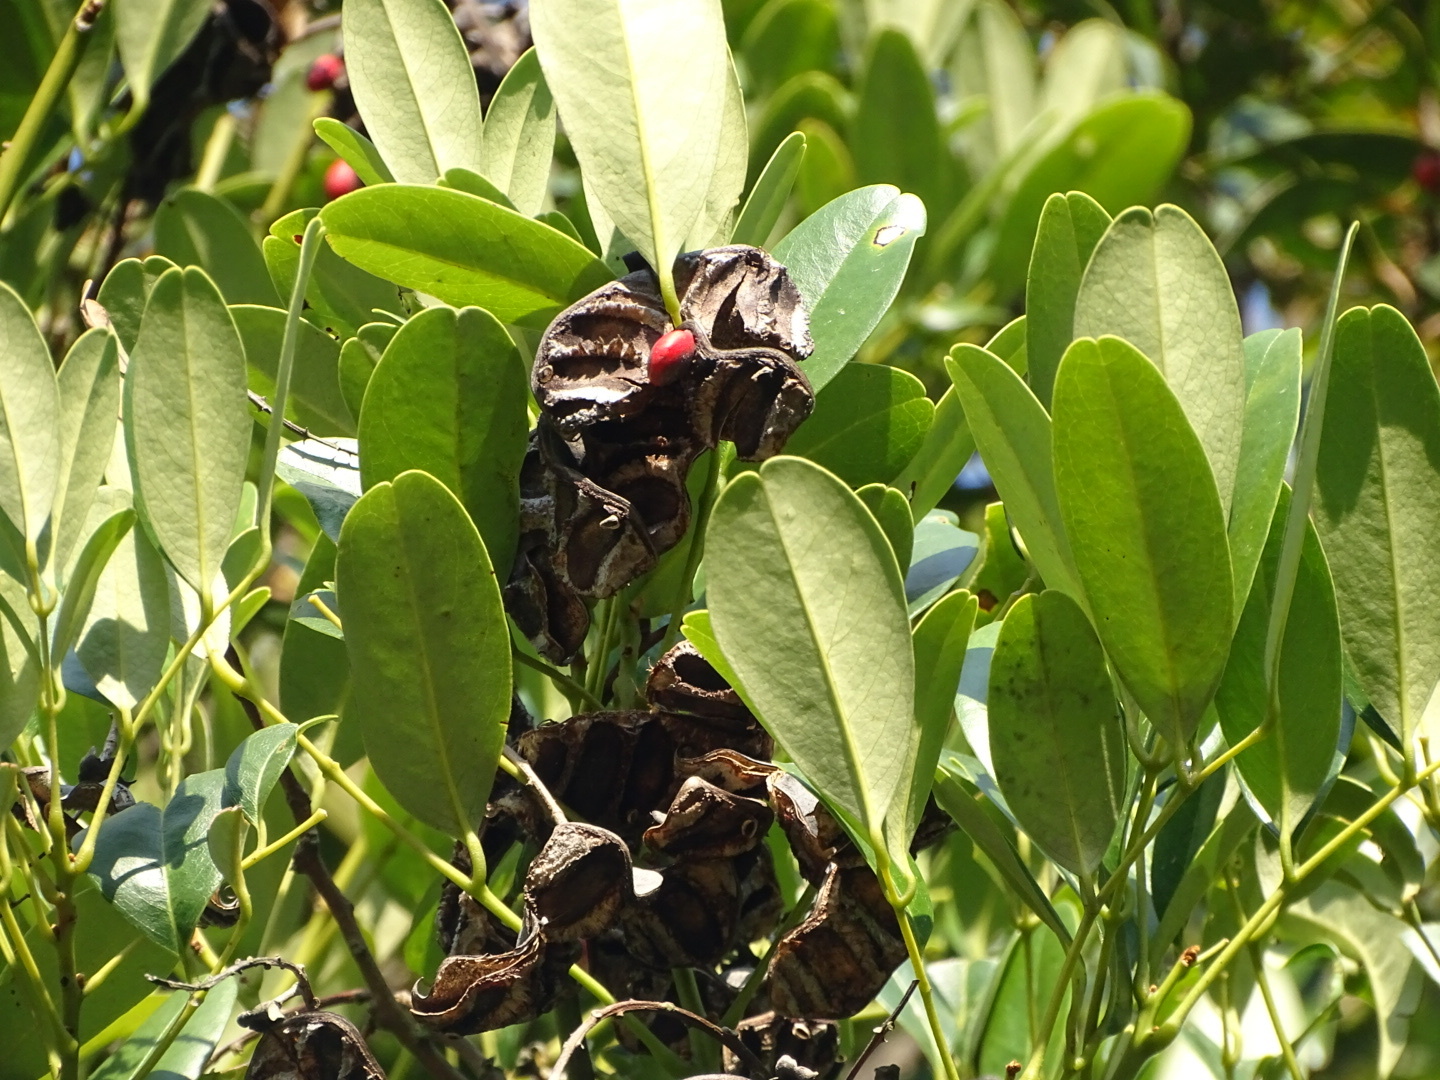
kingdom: Plantae
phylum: Tracheophyta
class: Magnoliopsida
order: Fabales
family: Fabaceae
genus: Ormosia
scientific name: Ormosia emarginata
